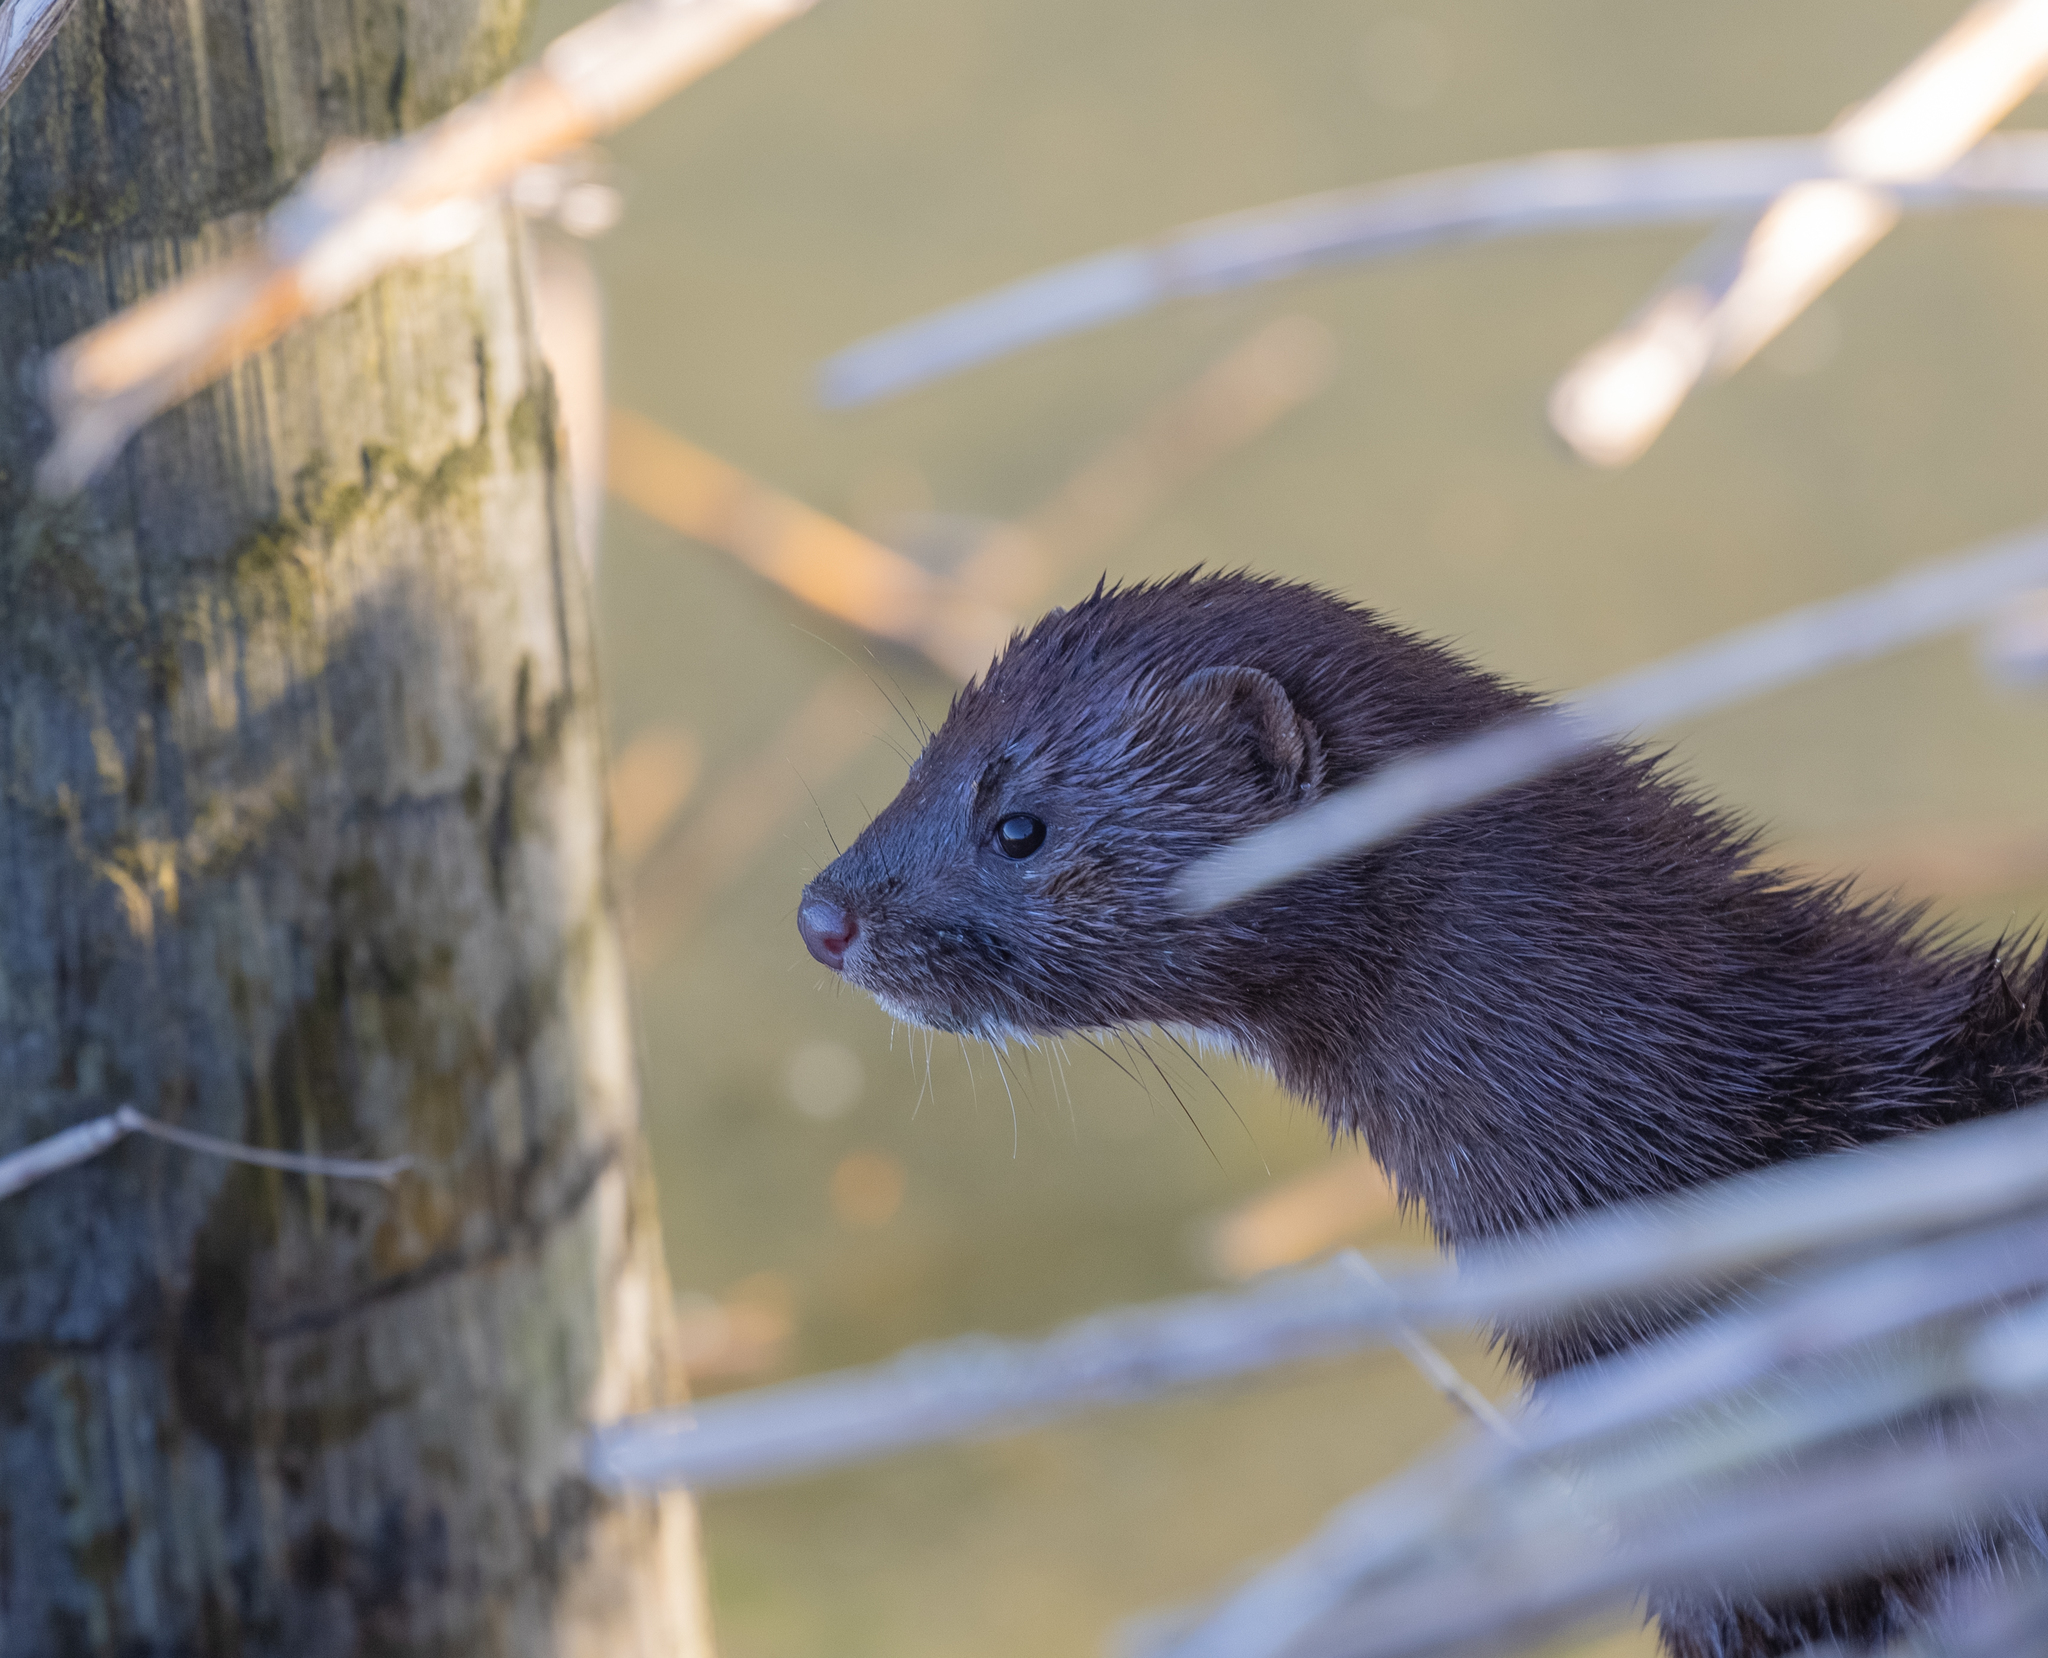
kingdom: Animalia
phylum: Chordata
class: Mammalia
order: Carnivora
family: Mustelidae
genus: Mustela
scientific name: Mustela
